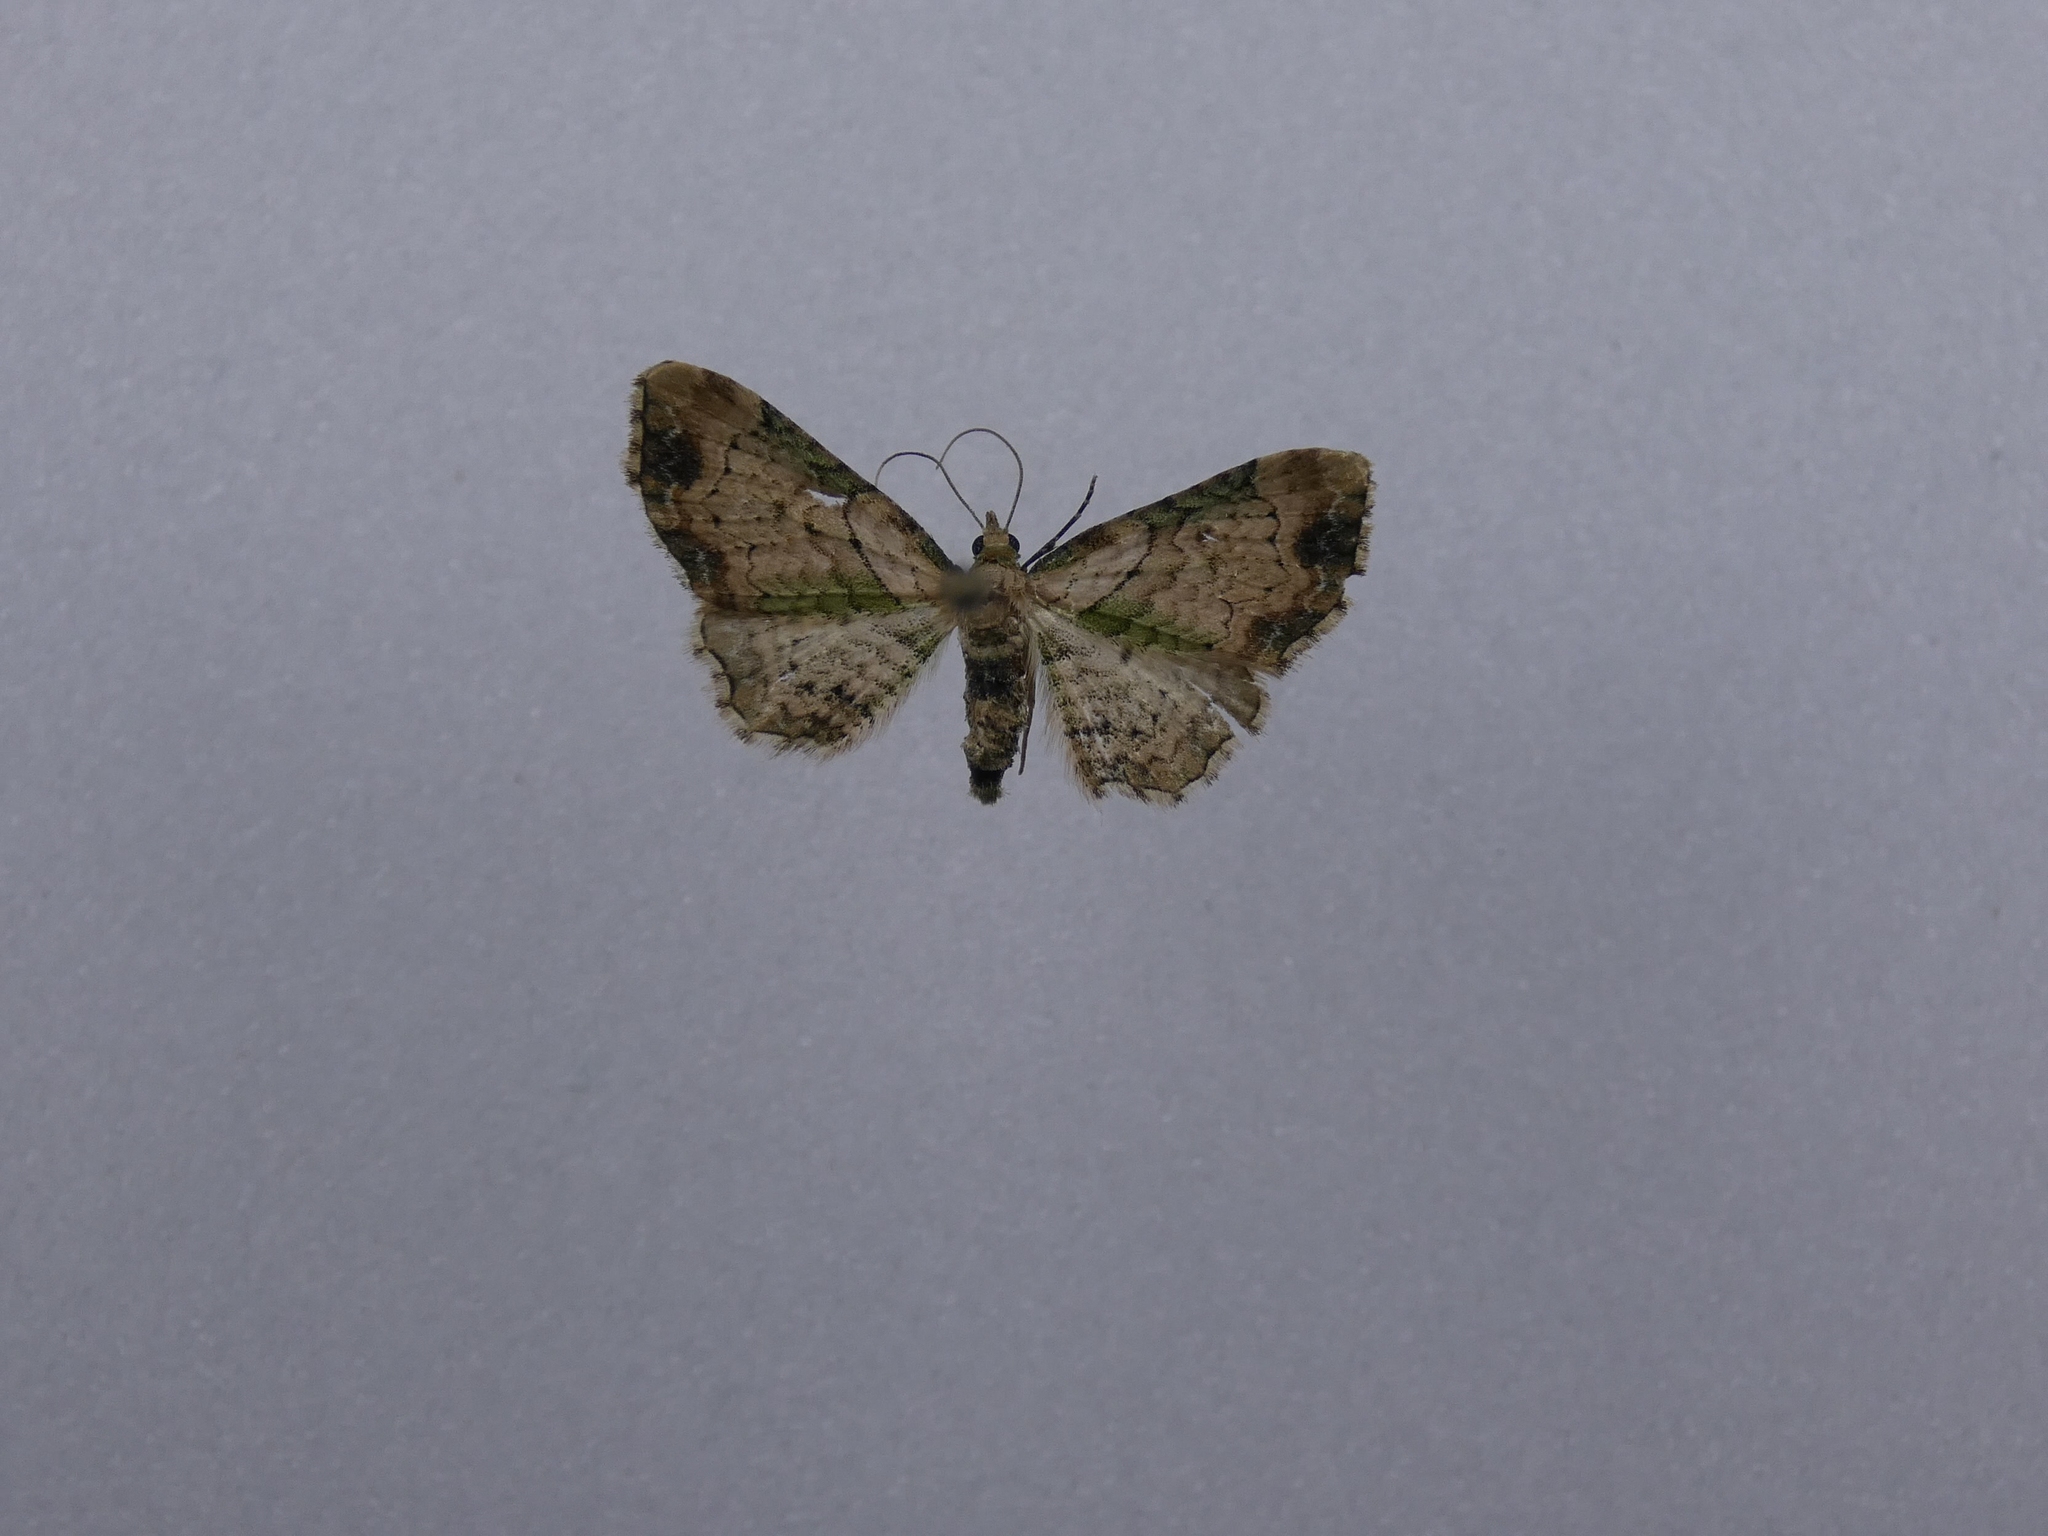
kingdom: Animalia
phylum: Arthropoda
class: Insecta
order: Lepidoptera
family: Geometridae
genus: Chloroclystis
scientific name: Chloroclystis
